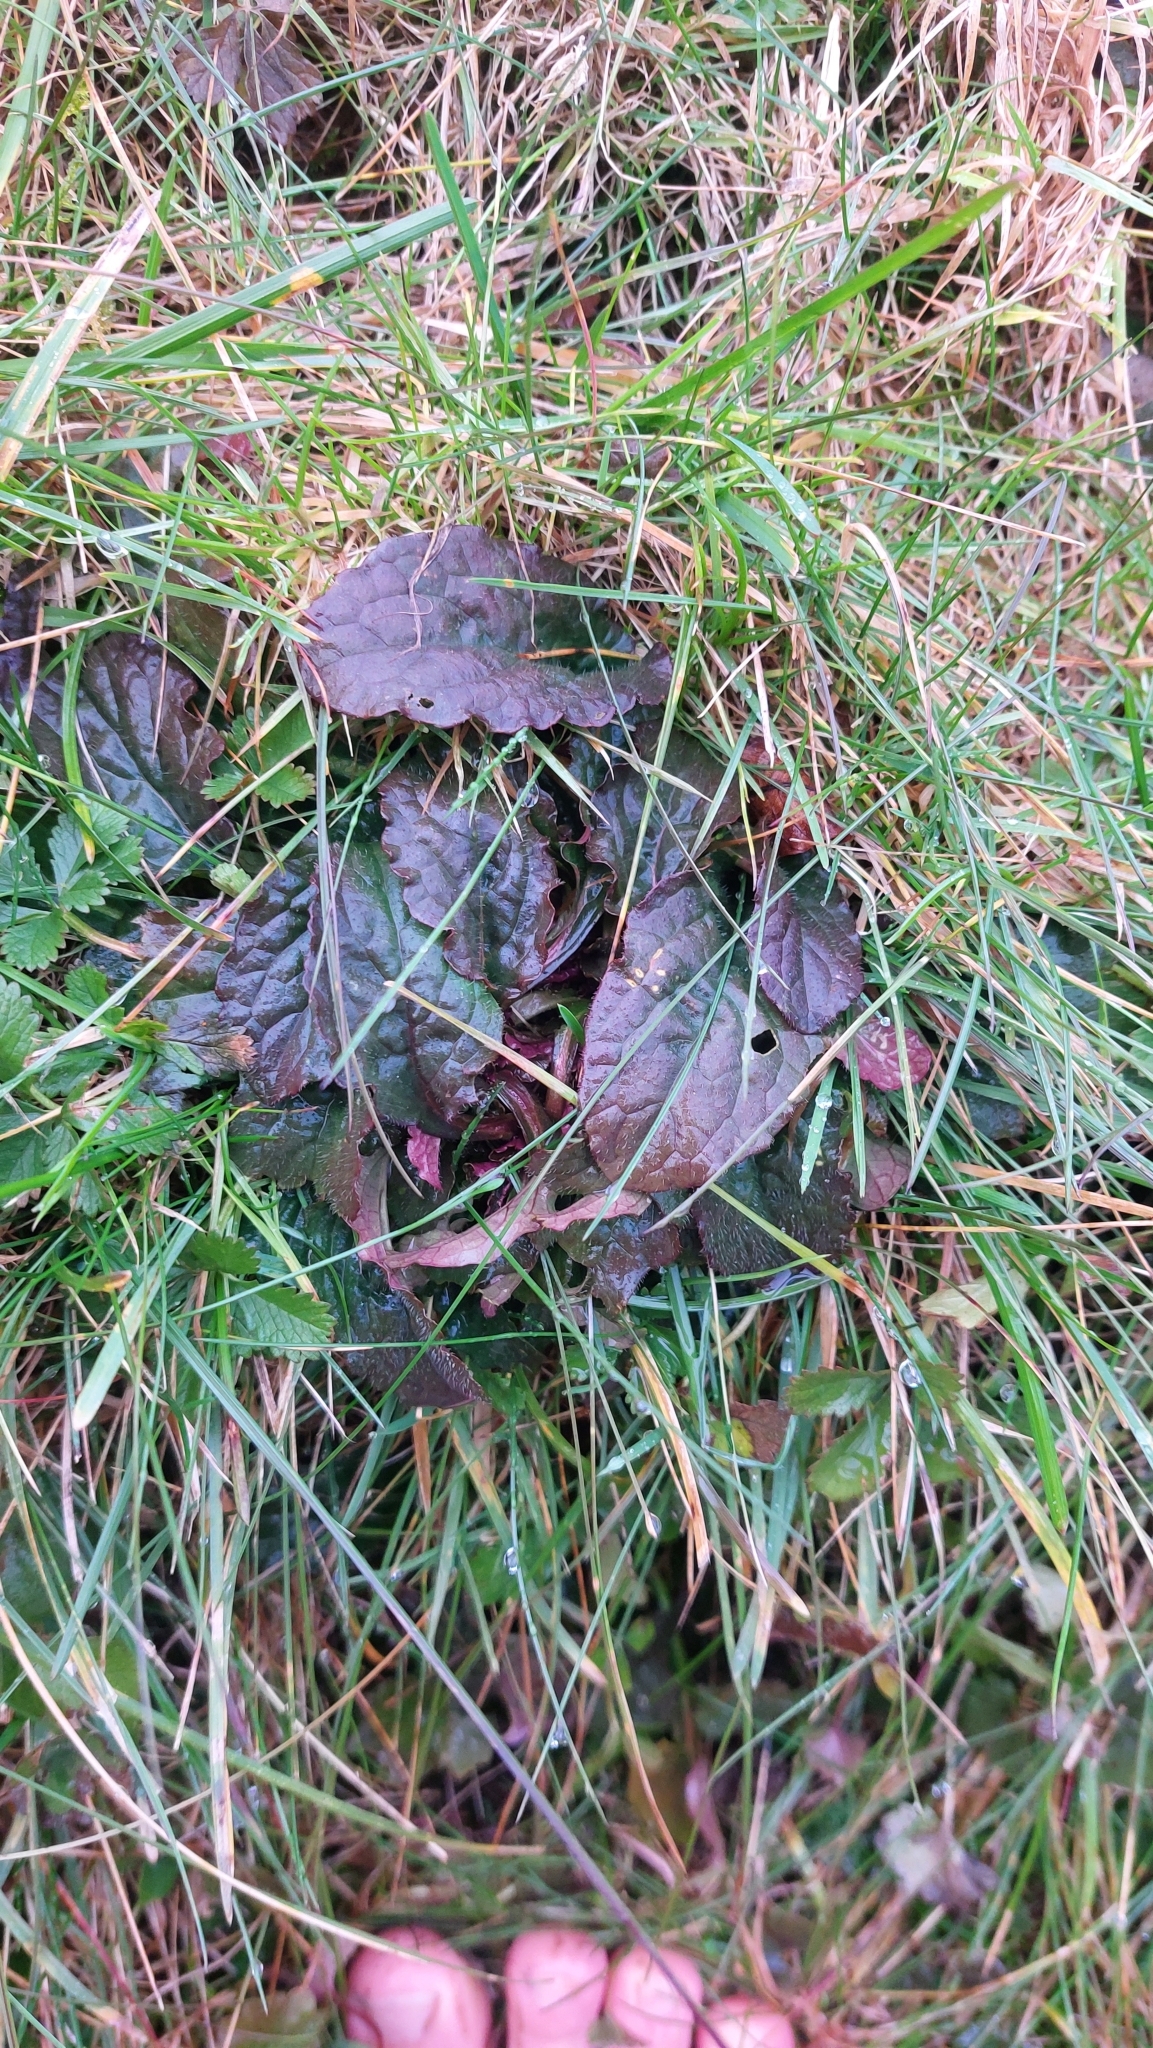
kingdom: Plantae
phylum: Tracheophyta
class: Magnoliopsida
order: Lamiales
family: Lamiaceae
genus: Ajuga
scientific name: Ajuga reptans
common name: Bugle
